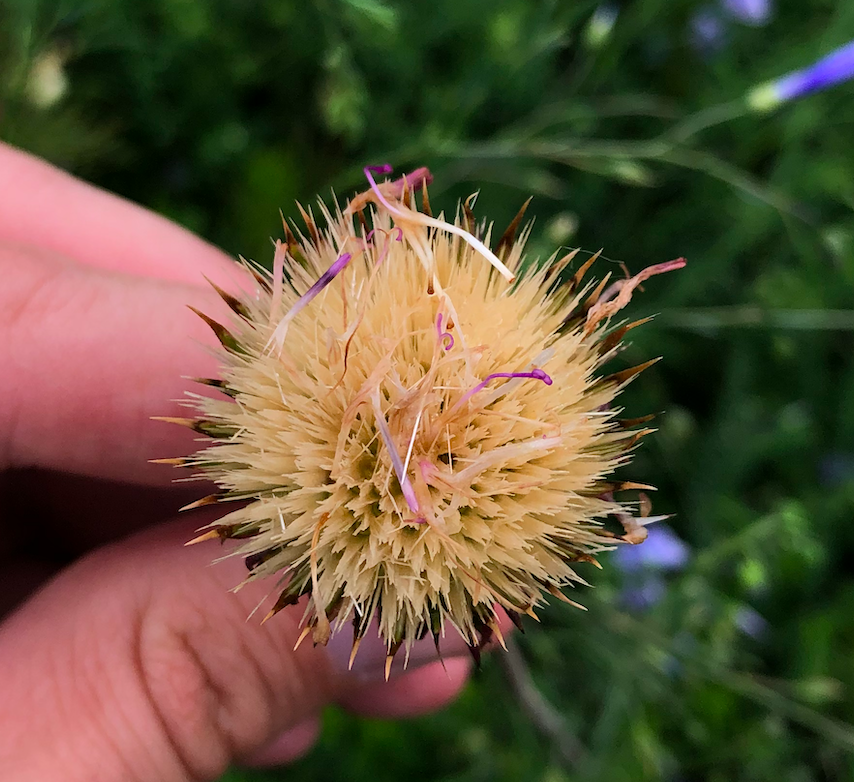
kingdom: Plantae
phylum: Tracheophyta
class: Magnoliopsida
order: Asterales
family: Asteraceae
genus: Jurinea
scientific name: Jurinea mollis
